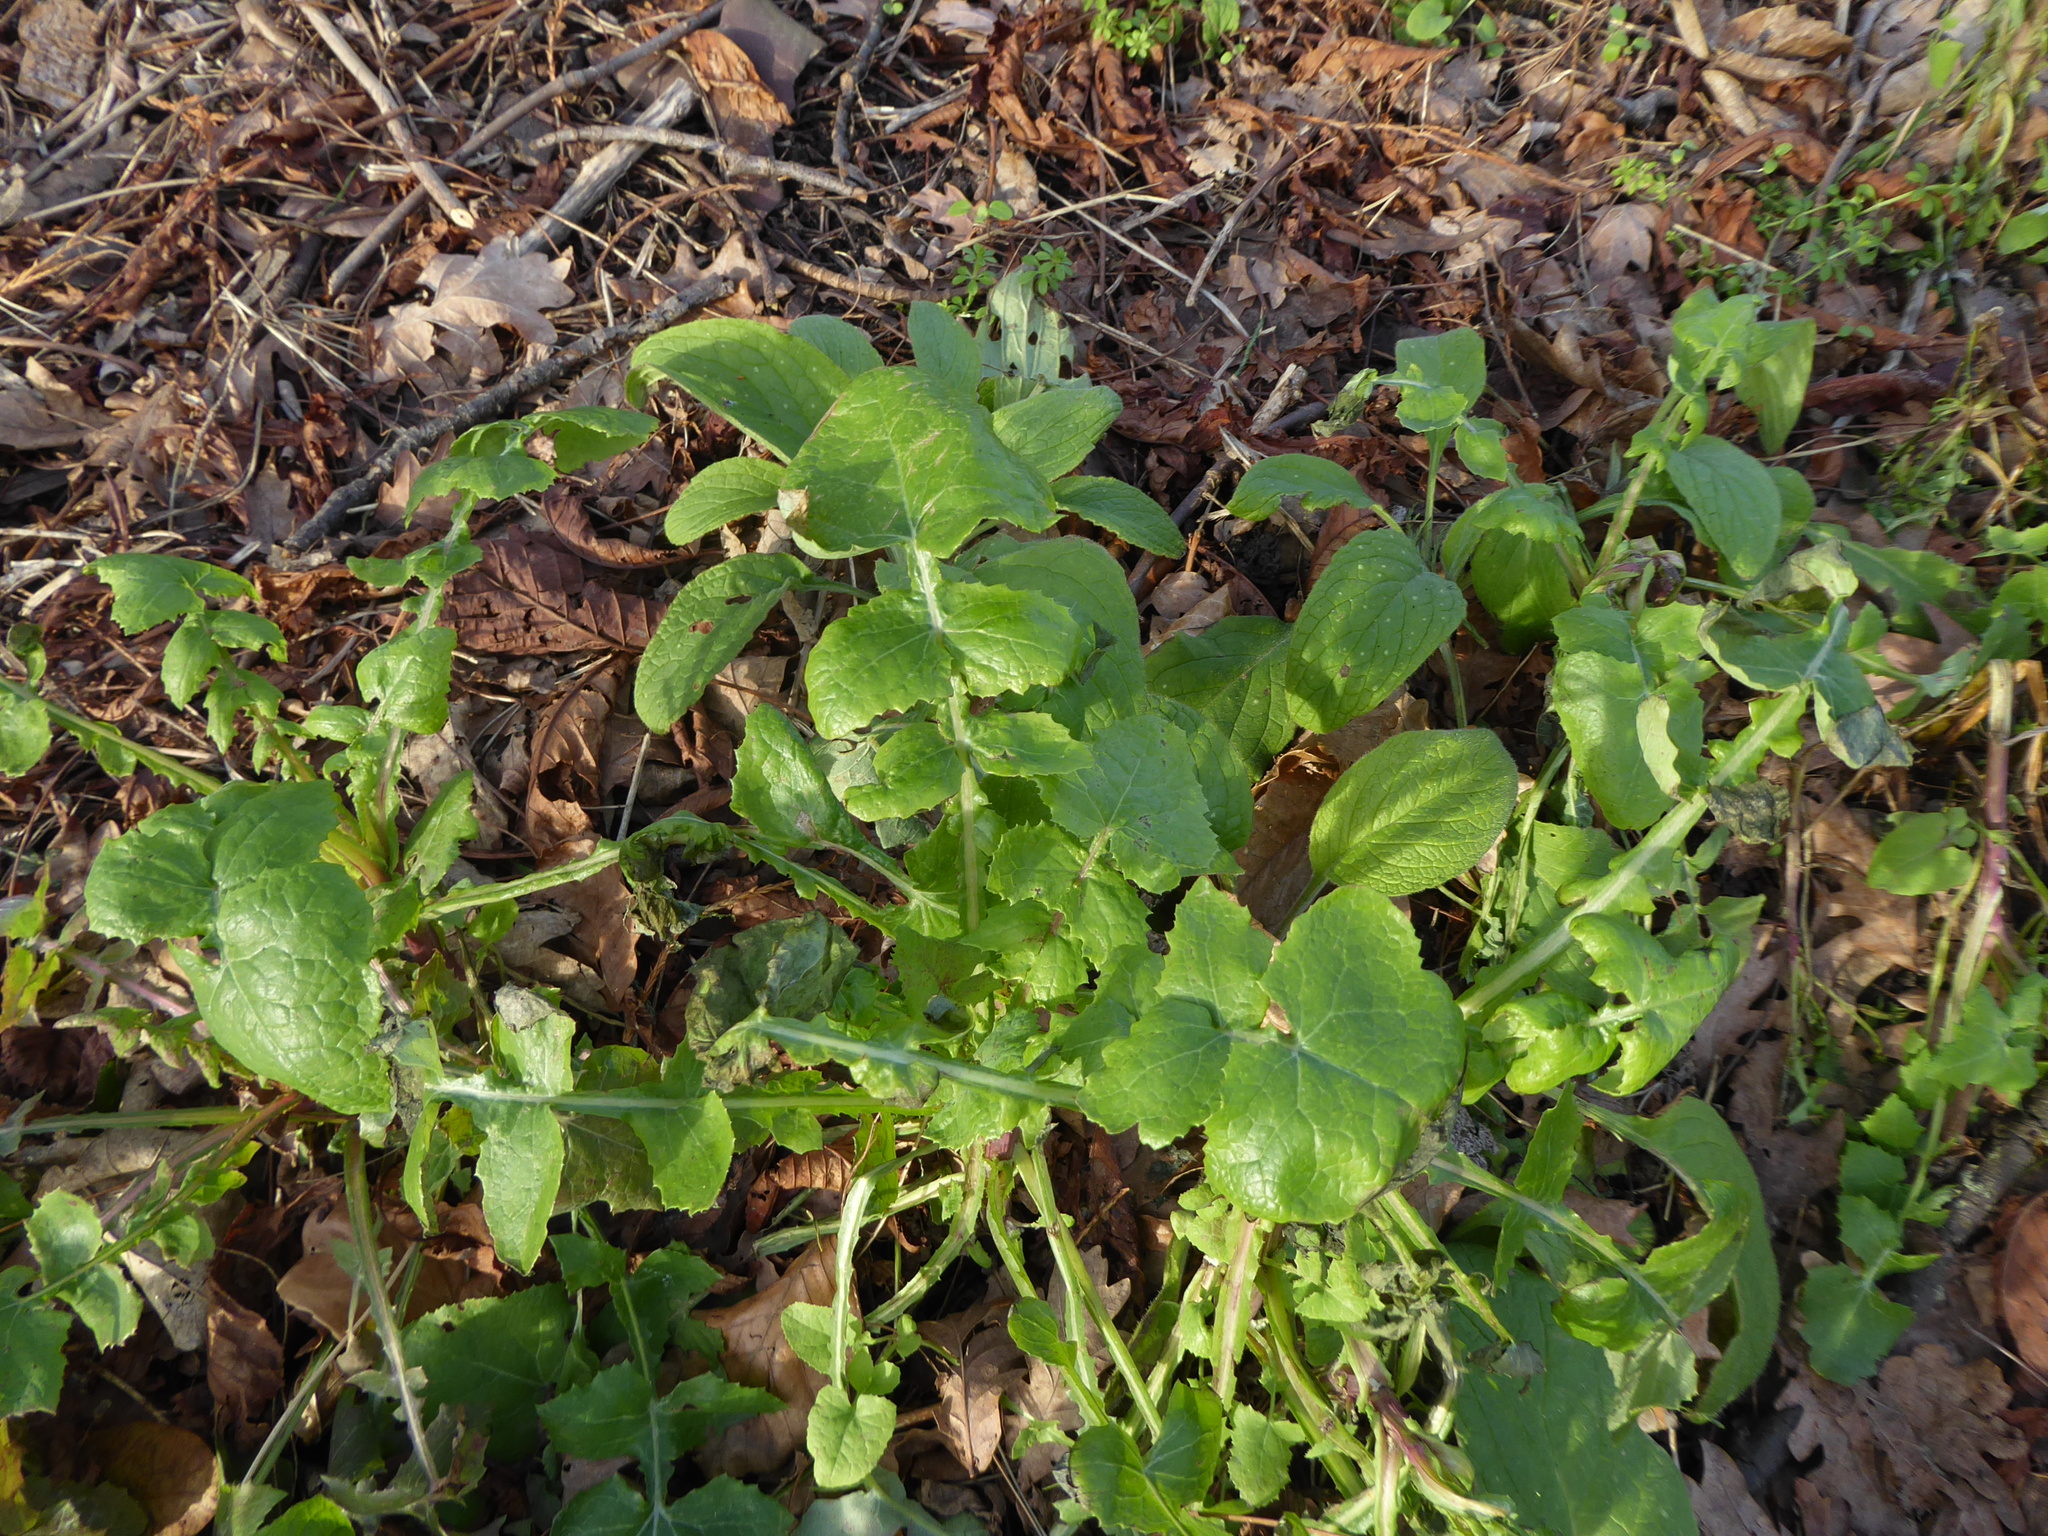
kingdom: Plantae
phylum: Tracheophyta
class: Magnoliopsida
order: Asterales
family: Asteraceae
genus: Sonchus
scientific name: Sonchus oleraceus
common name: Common sowthistle
